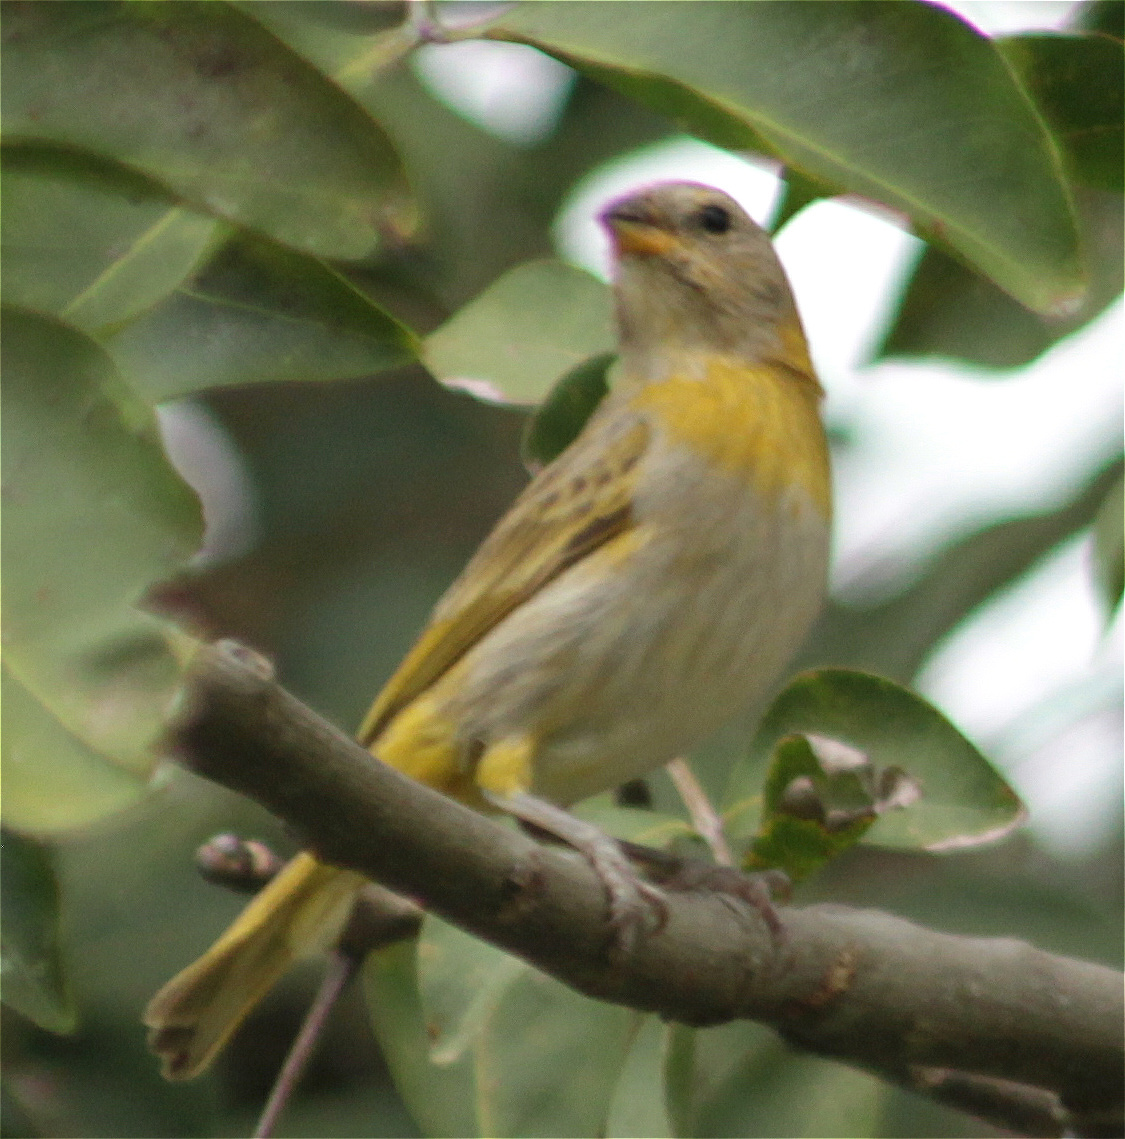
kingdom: Animalia
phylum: Chordata
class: Aves
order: Passeriformes
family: Thraupidae
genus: Sicalis
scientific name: Sicalis flaveola
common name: Saffron finch
